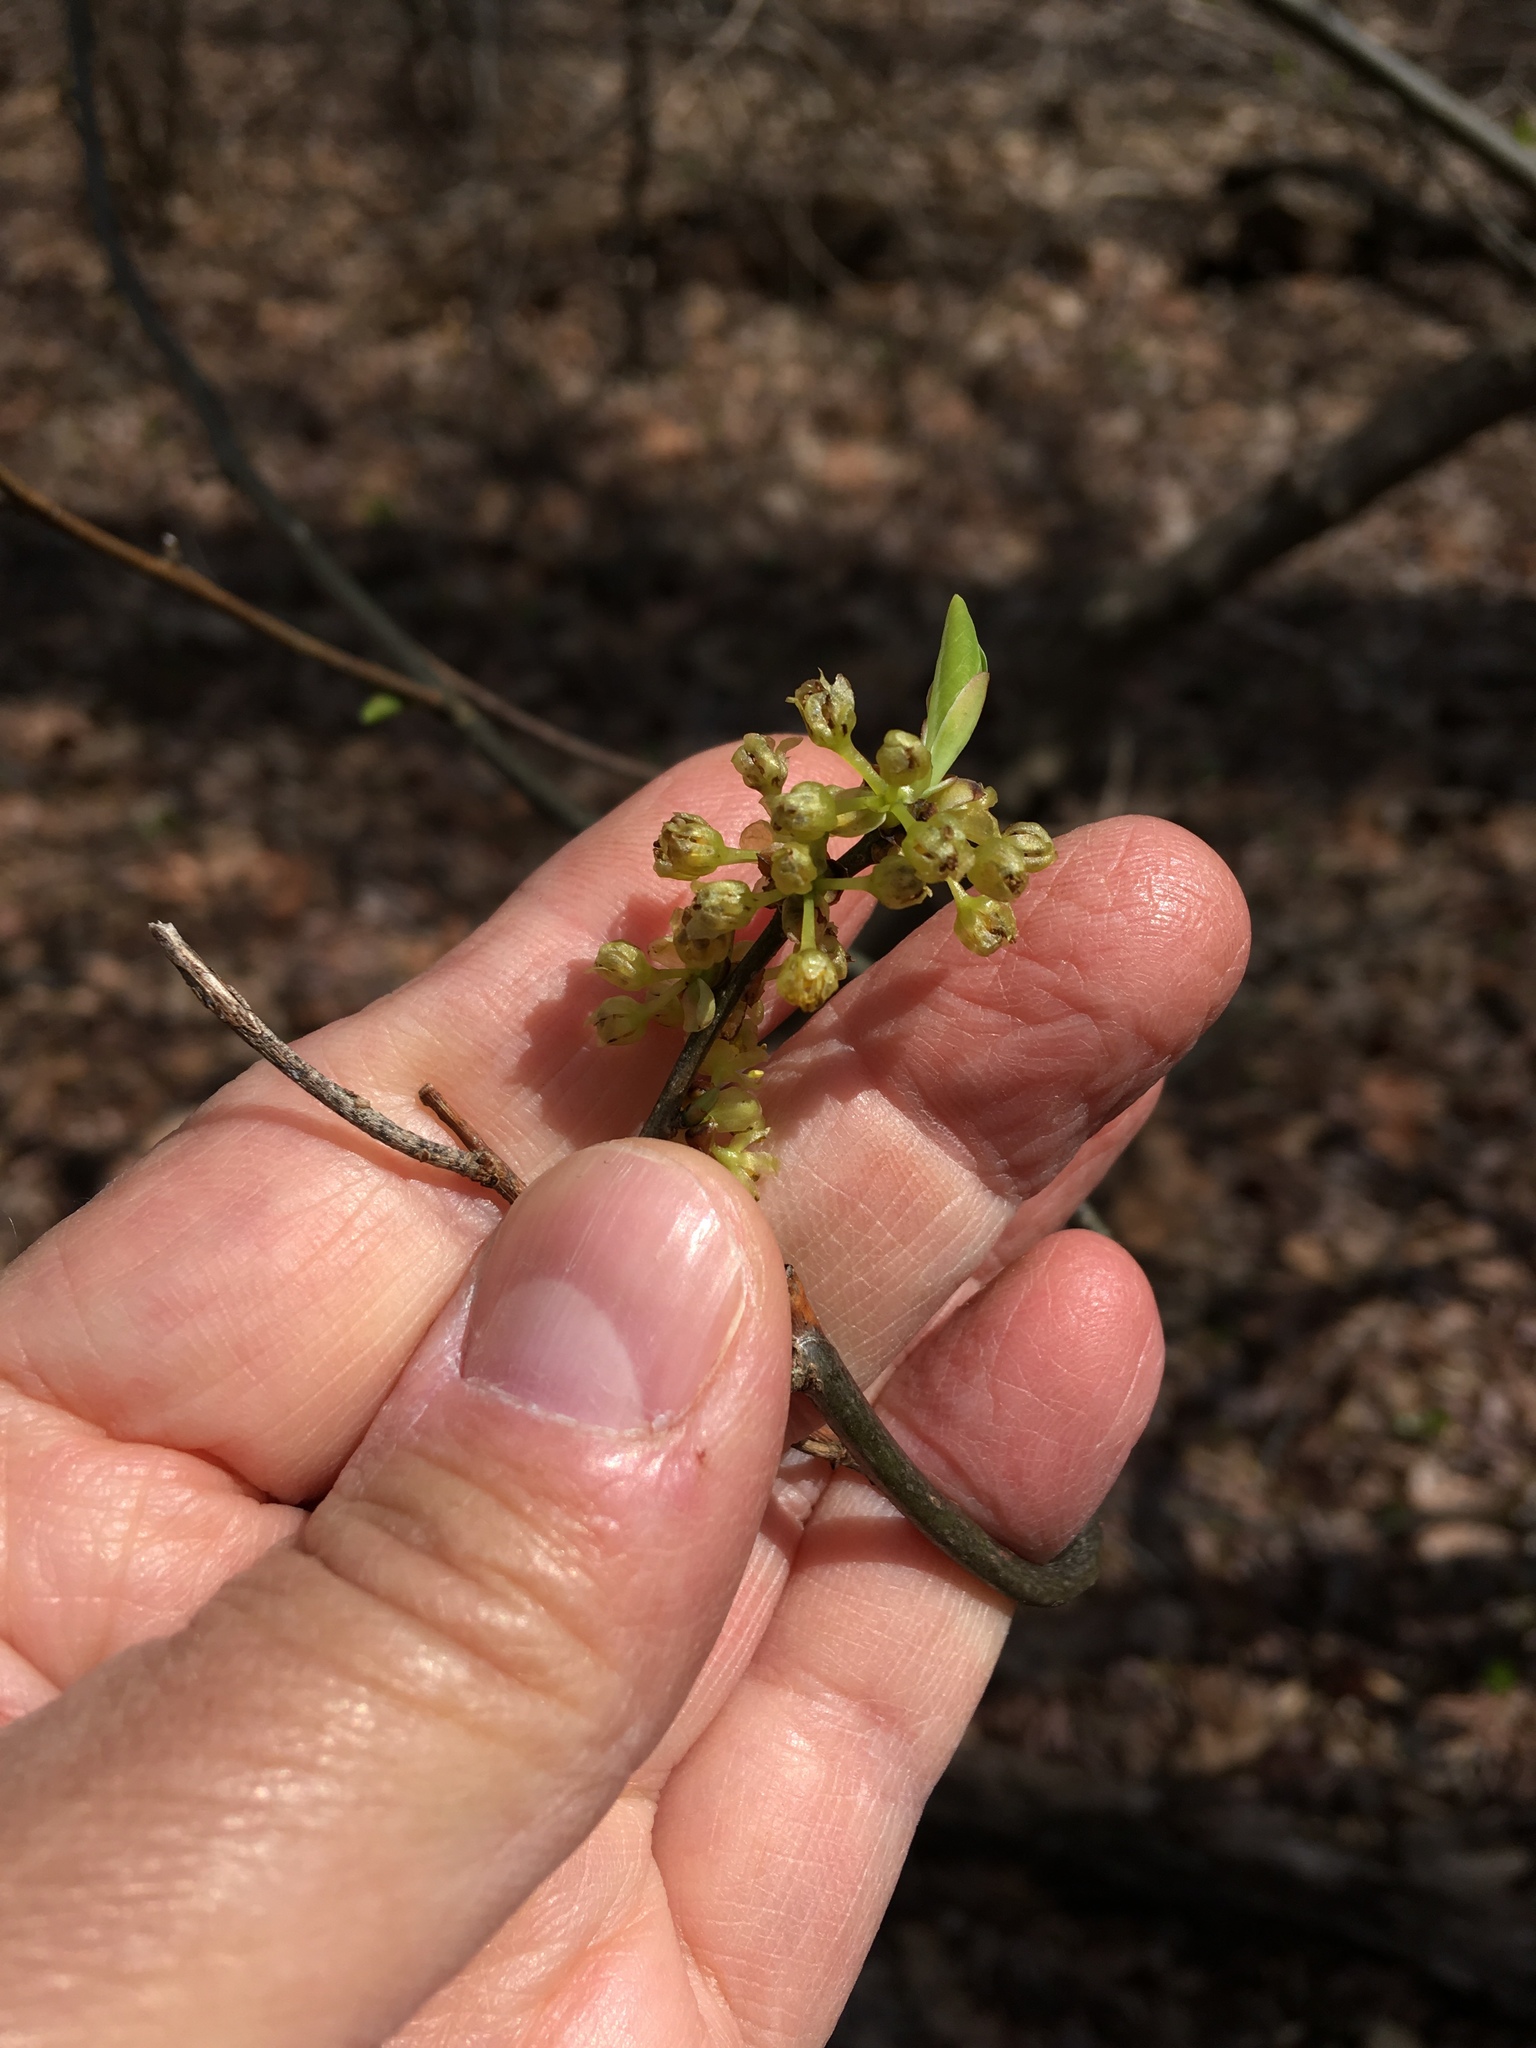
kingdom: Plantae
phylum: Tracheophyta
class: Magnoliopsida
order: Laurales
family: Lauraceae
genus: Lindera
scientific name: Lindera benzoin
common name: Spicebush
